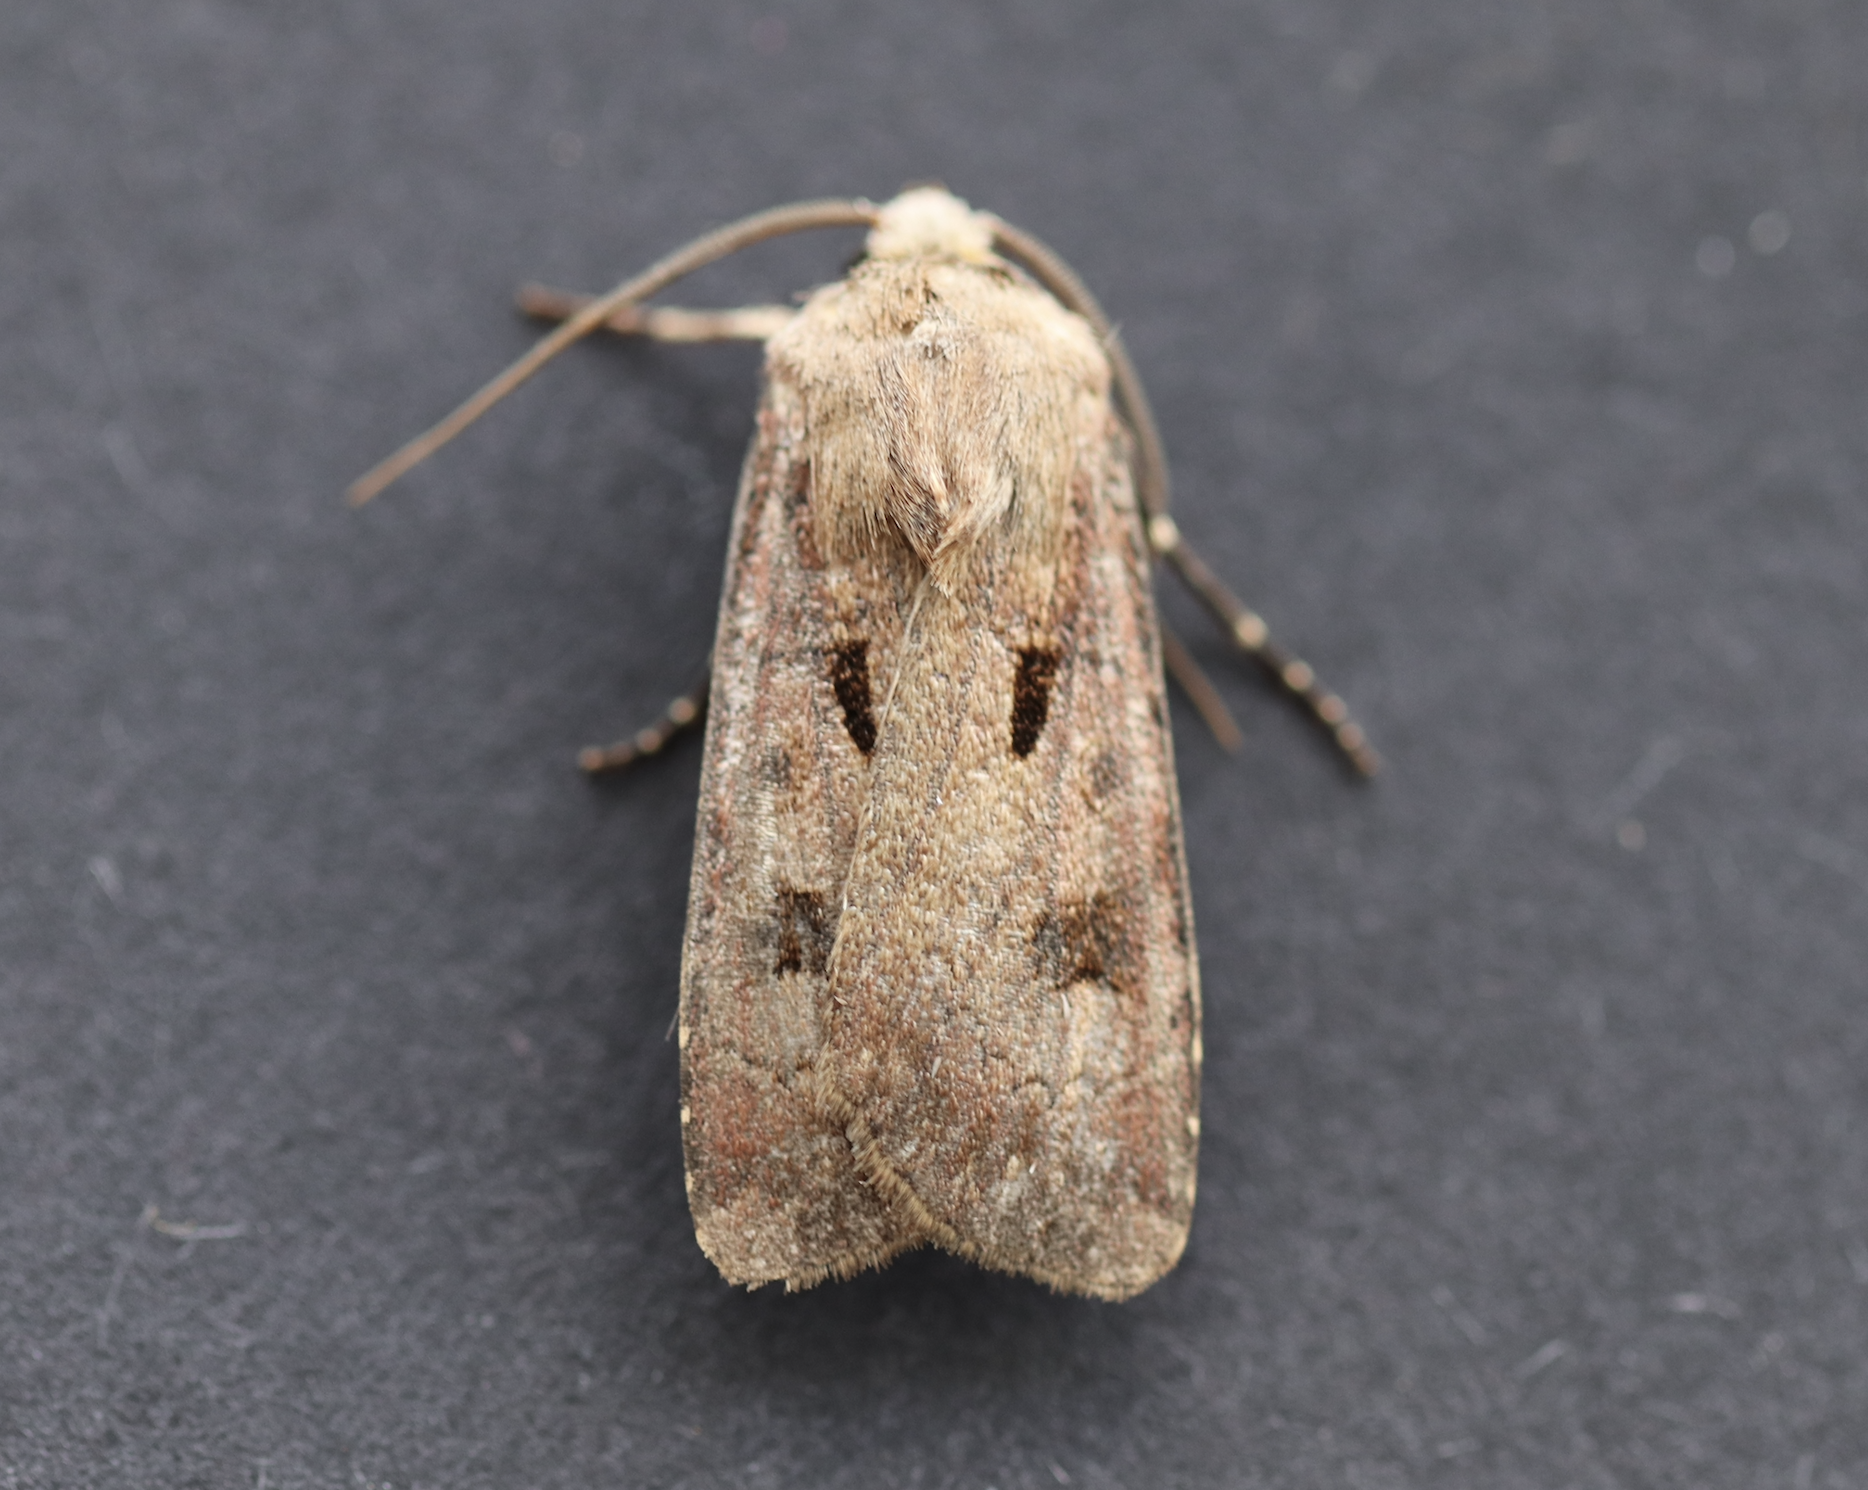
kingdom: Animalia
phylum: Arthropoda
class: Insecta
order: Lepidoptera
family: Noctuidae
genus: Agrotis
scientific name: Agrotis exclamationis
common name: Heart and dart
